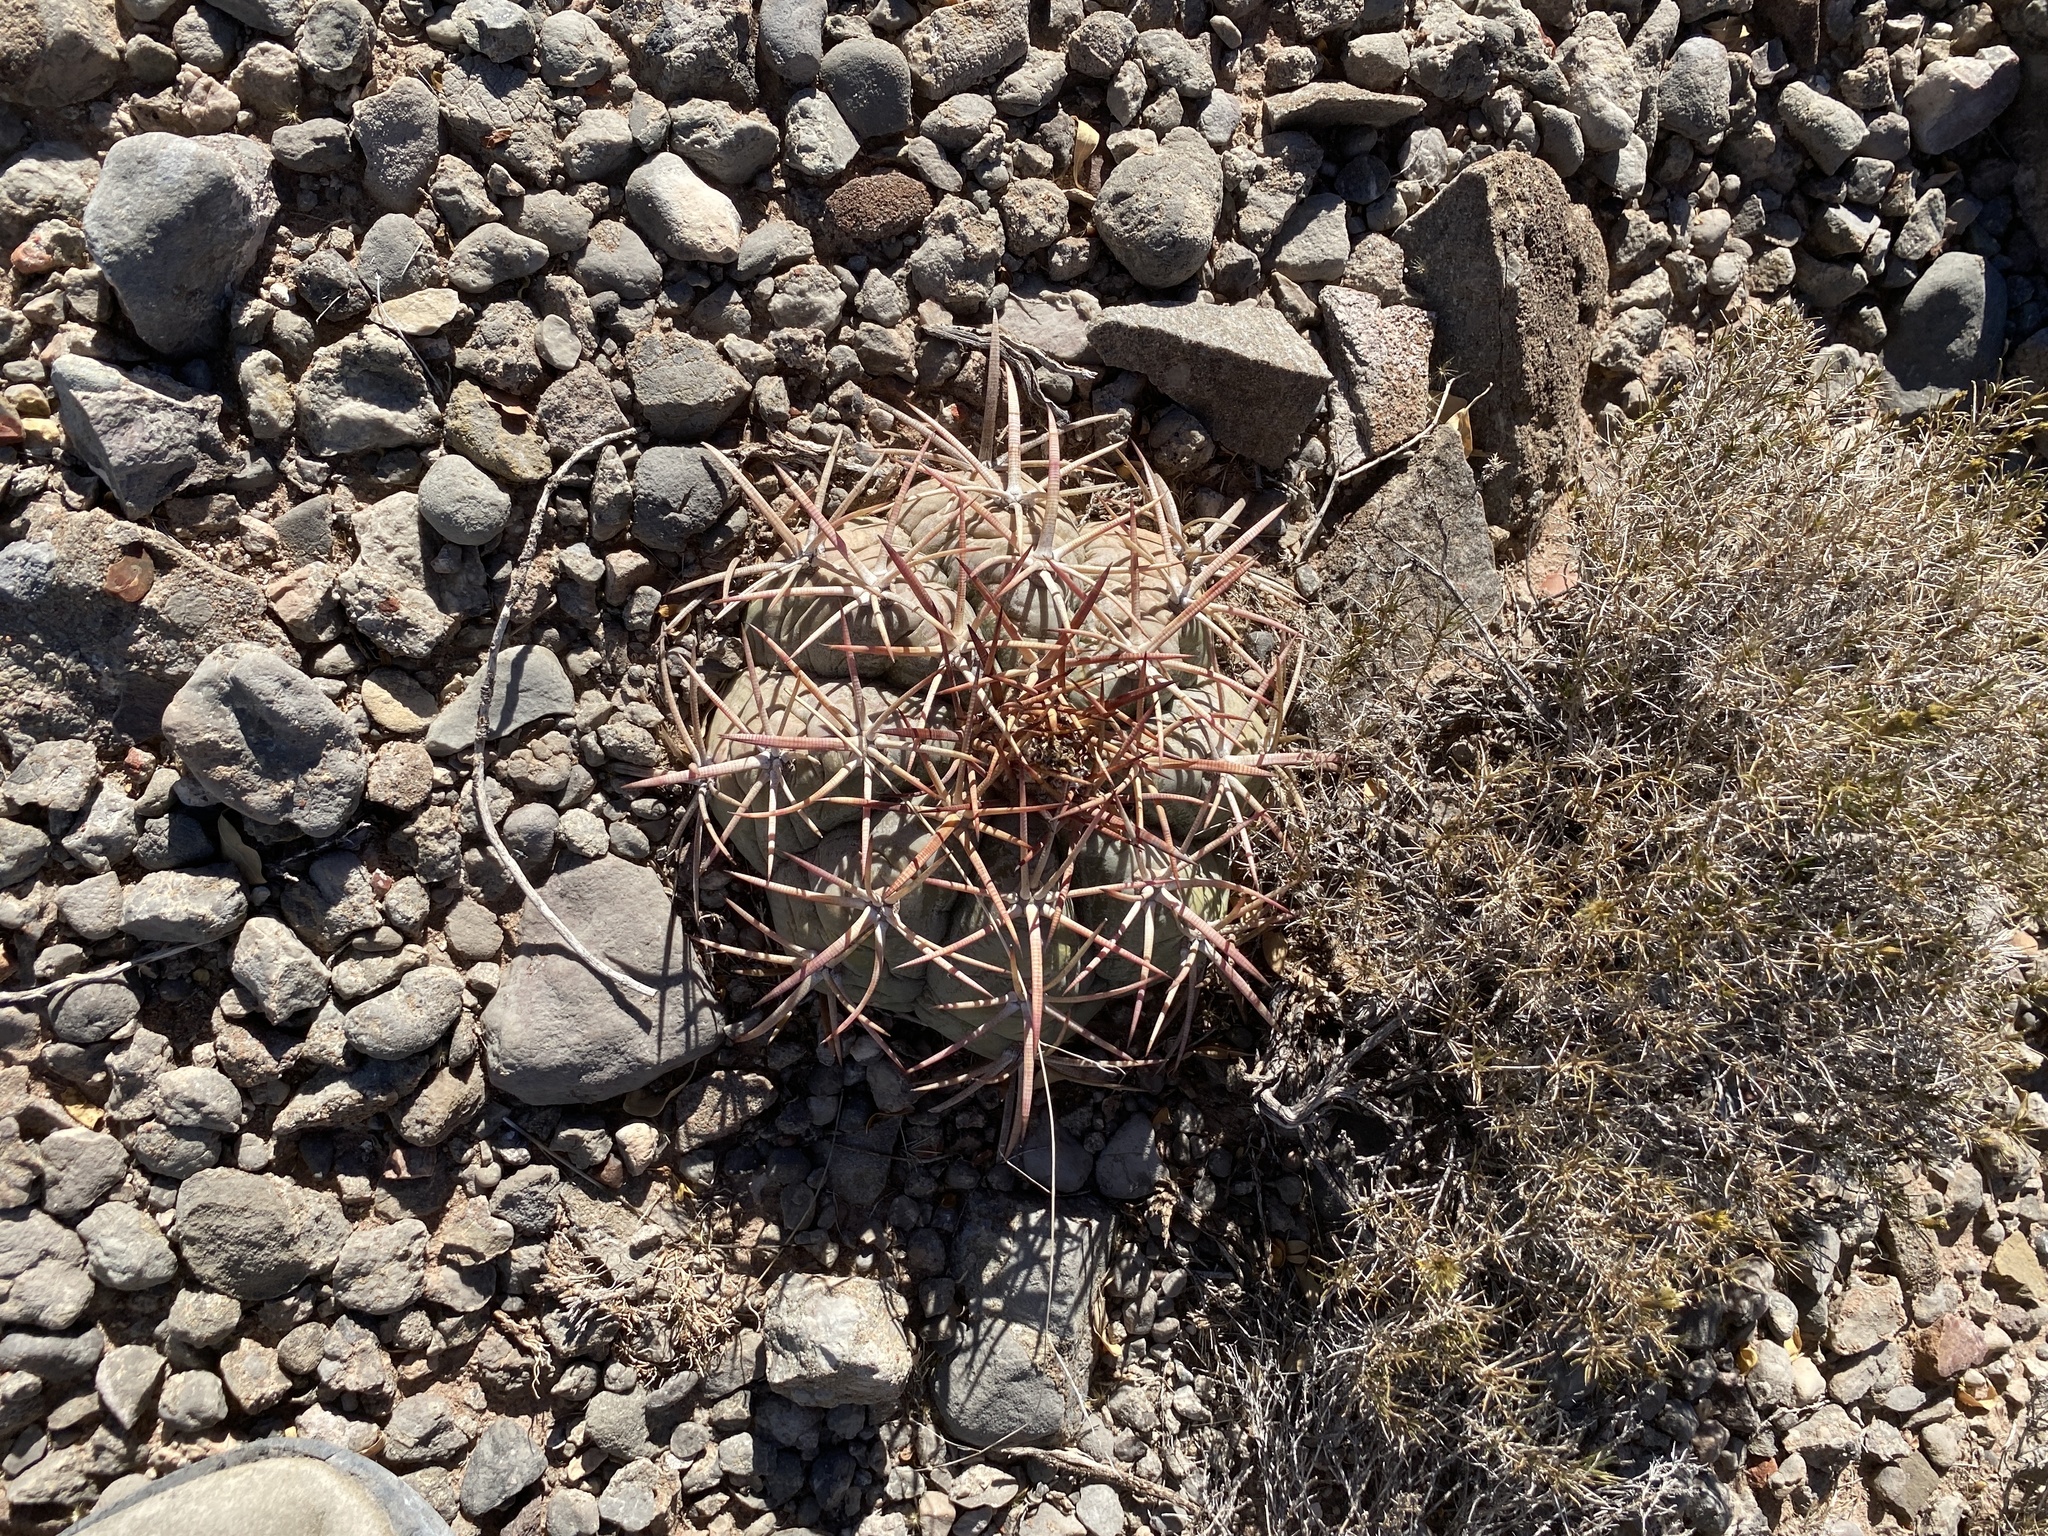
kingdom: Plantae
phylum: Tracheophyta
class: Magnoliopsida
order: Caryophyllales
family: Cactaceae
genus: Echinocactus
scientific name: Echinocactus horizonthalonius
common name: Devilshead
